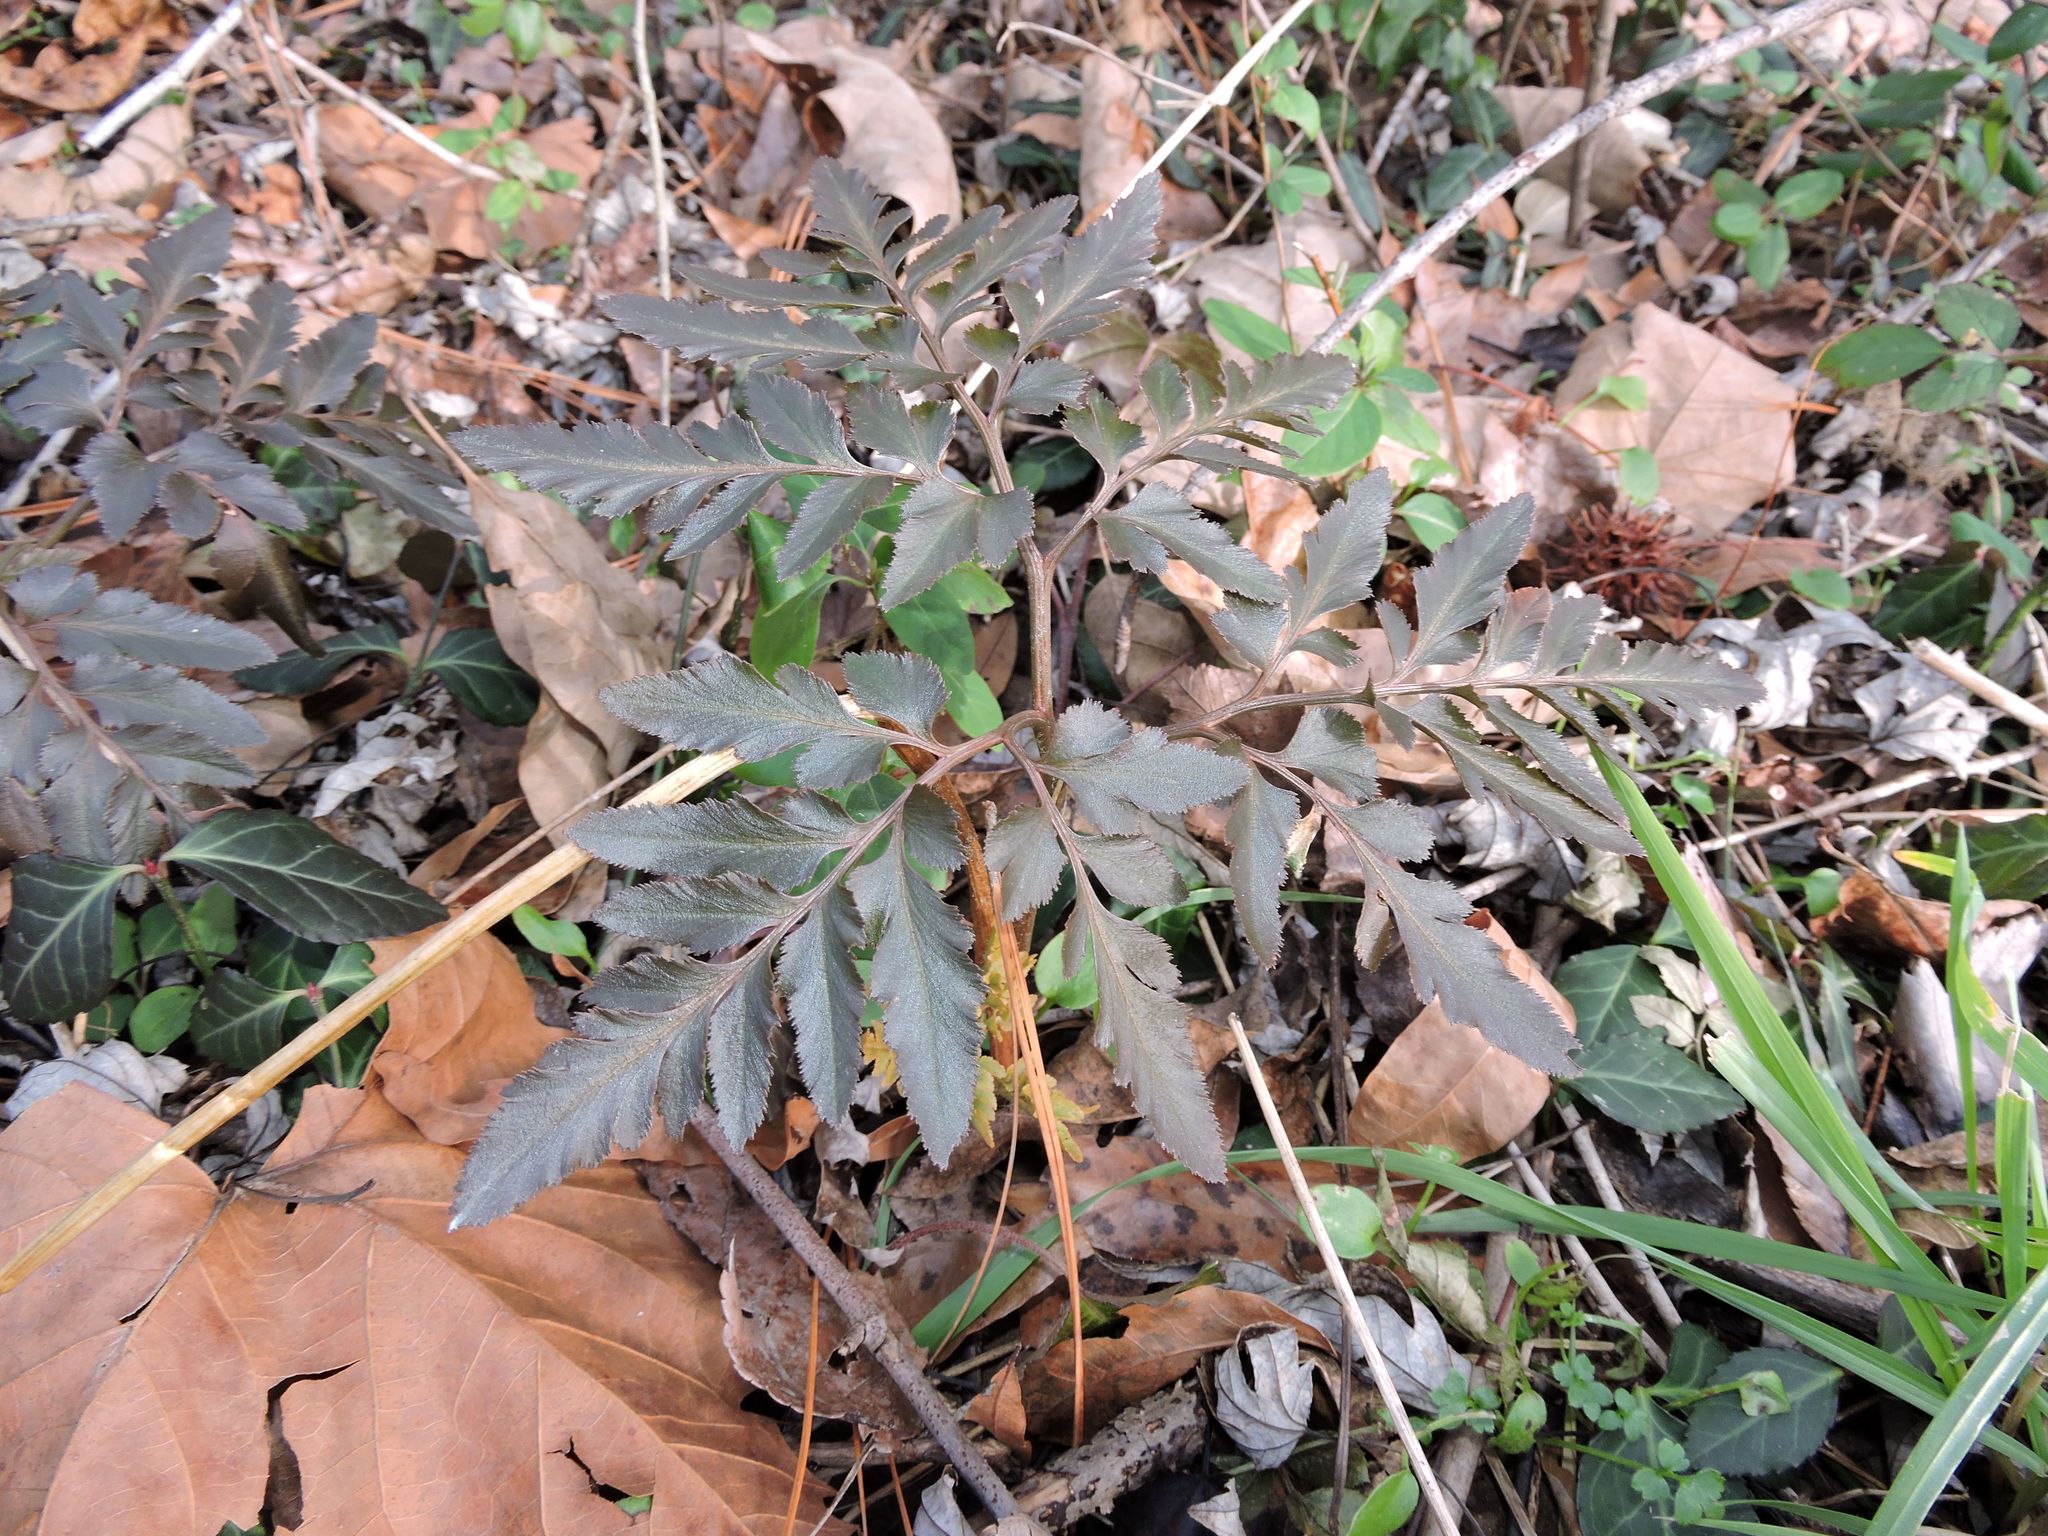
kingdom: Plantae
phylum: Tracheophyta
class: Polypodiopsida
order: Ophioglossales
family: Ophioglossaceae
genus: Sceptridium
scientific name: Sceptridium dissectum
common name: Cut-leaved grapefern
